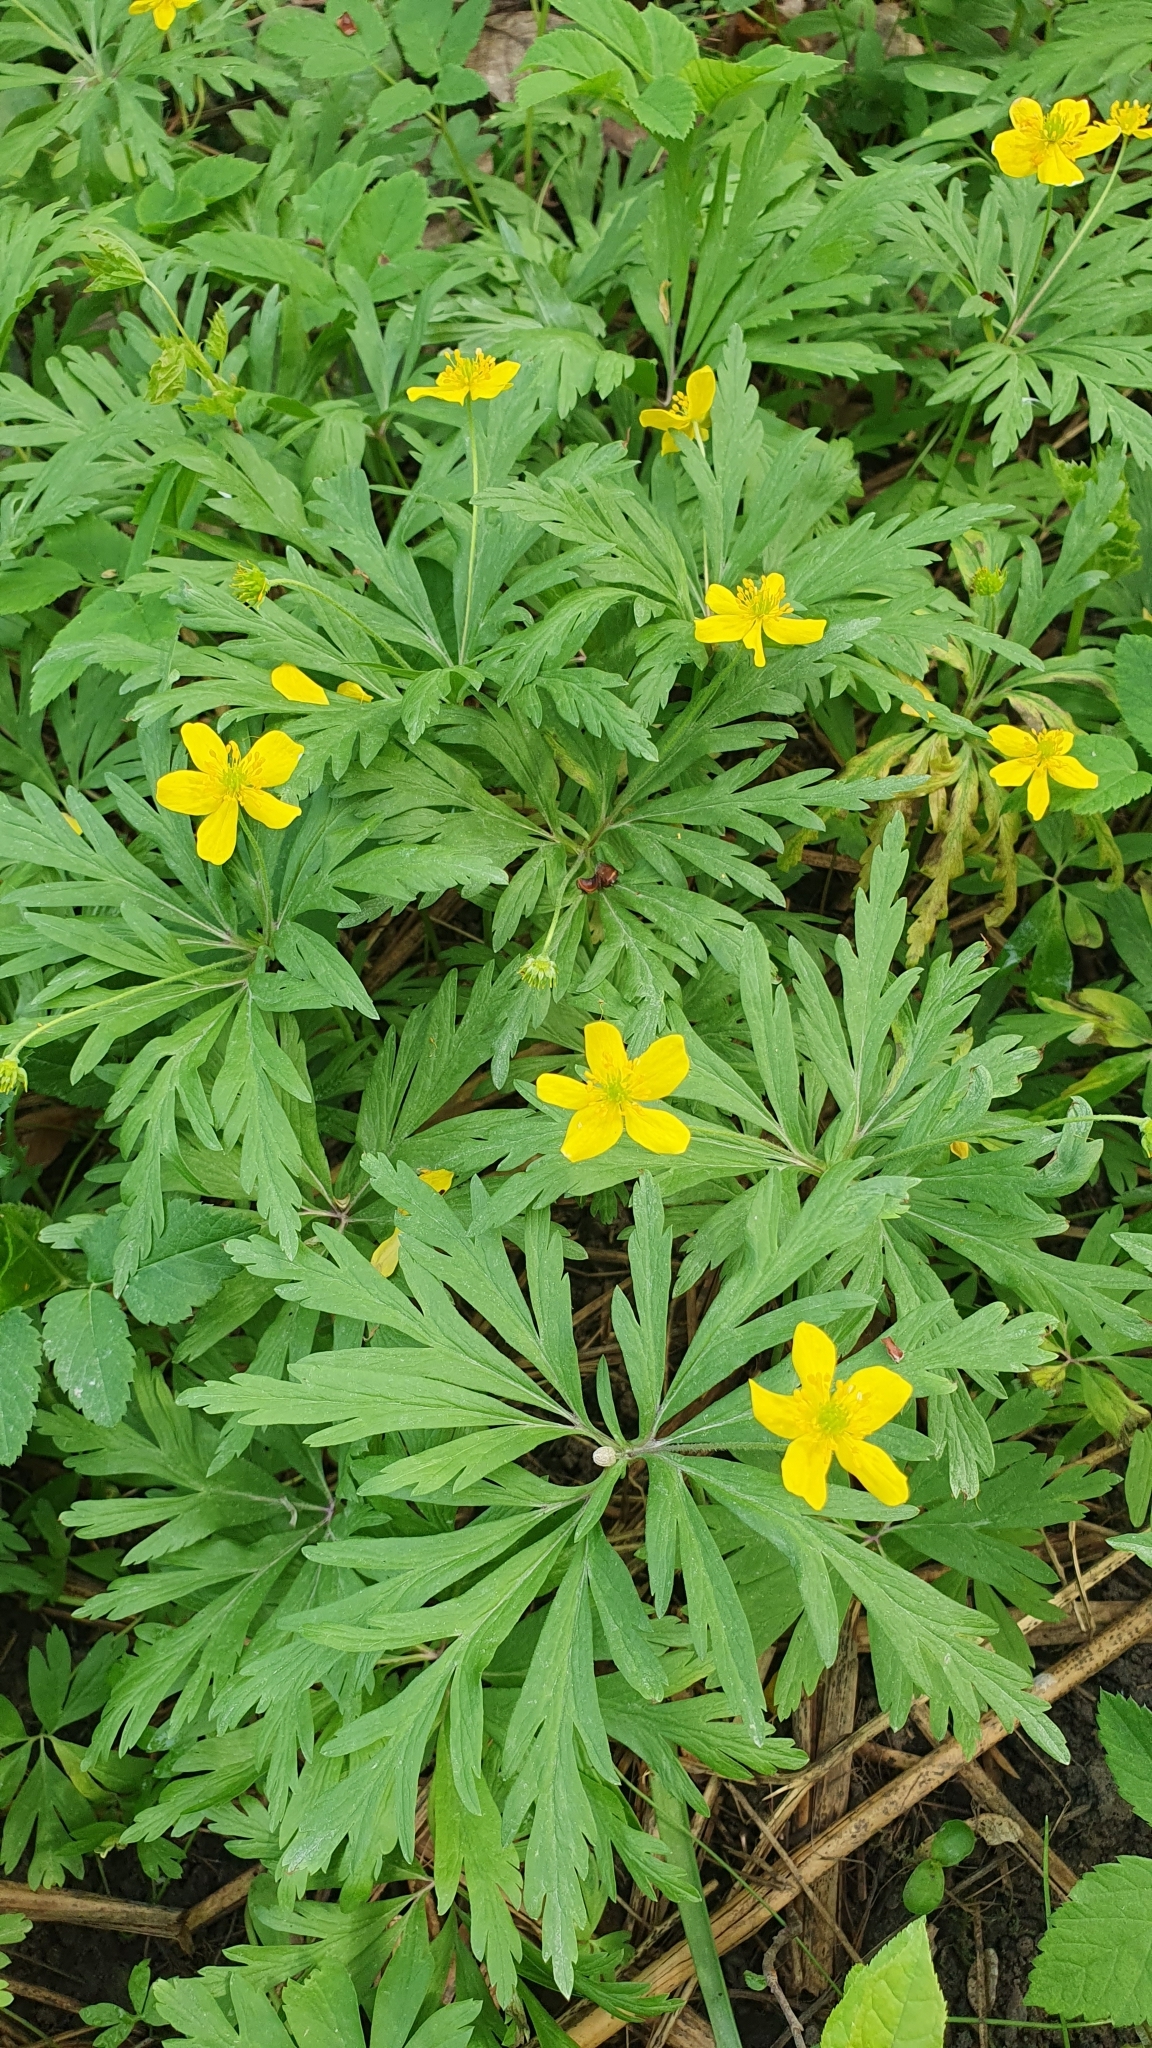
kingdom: Plantae
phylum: Tracheophyta
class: Magnoliopsida
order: Ranunculales
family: Ranunculaceae
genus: Anemone
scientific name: Anemone ranunculoides
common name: Yellow anemone
